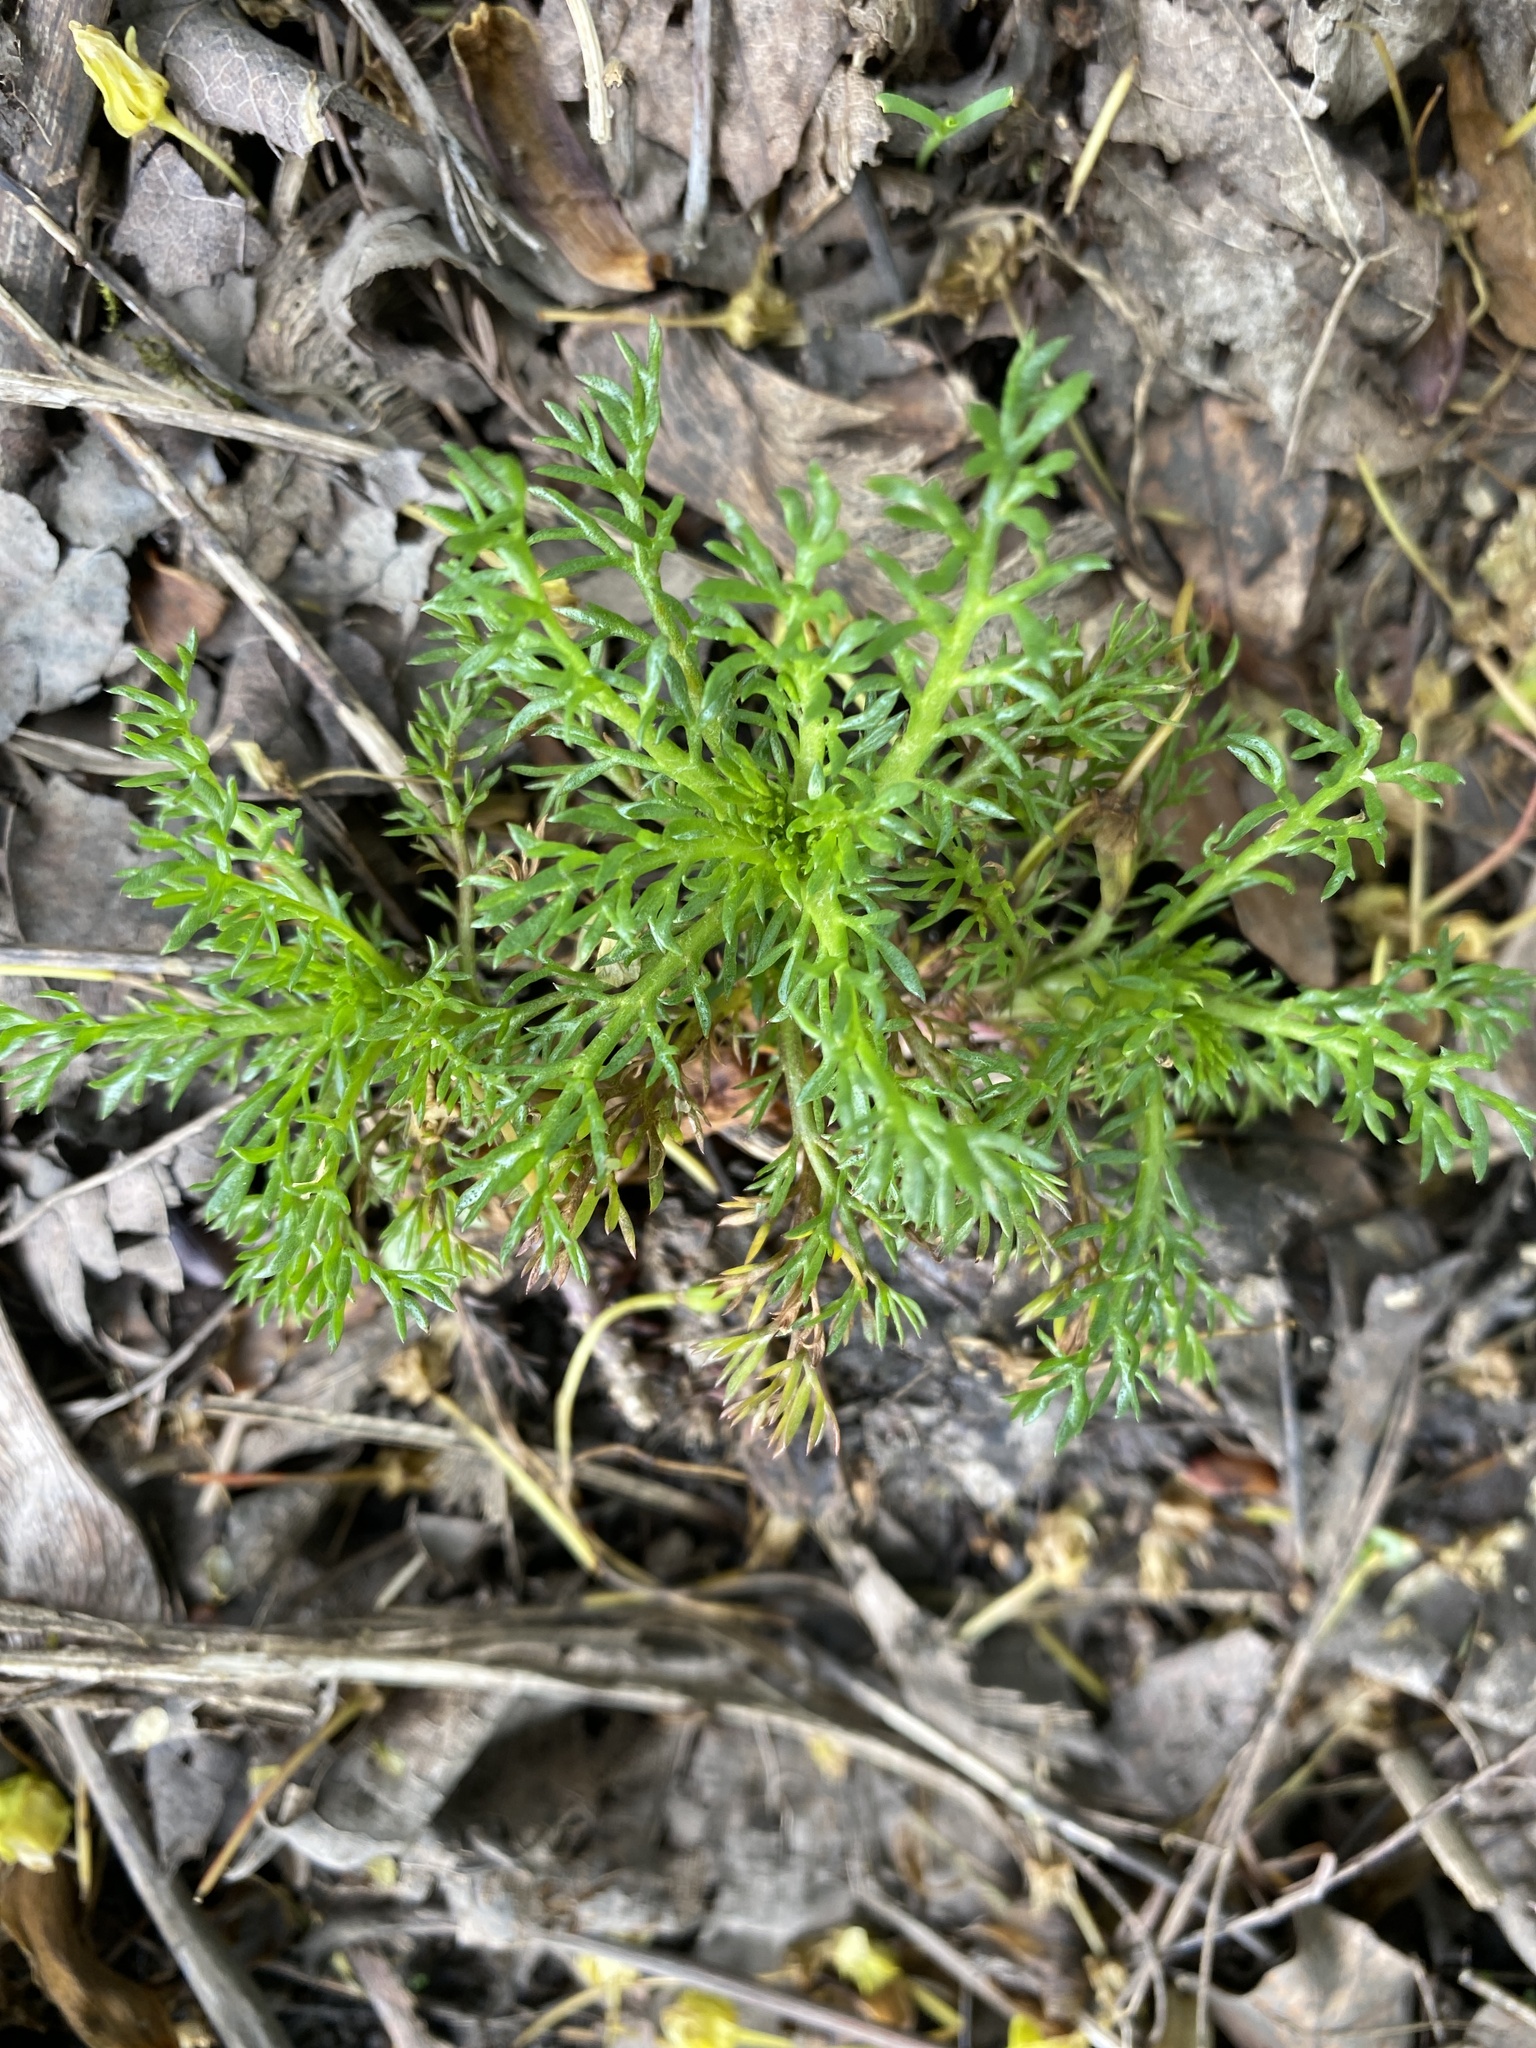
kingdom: Plantae
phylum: Tracheophyta
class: Magnoliopsida
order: Asterales
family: Asteraceae
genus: Matricaria
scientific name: Matricaria discoidea
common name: Disc mayweed
